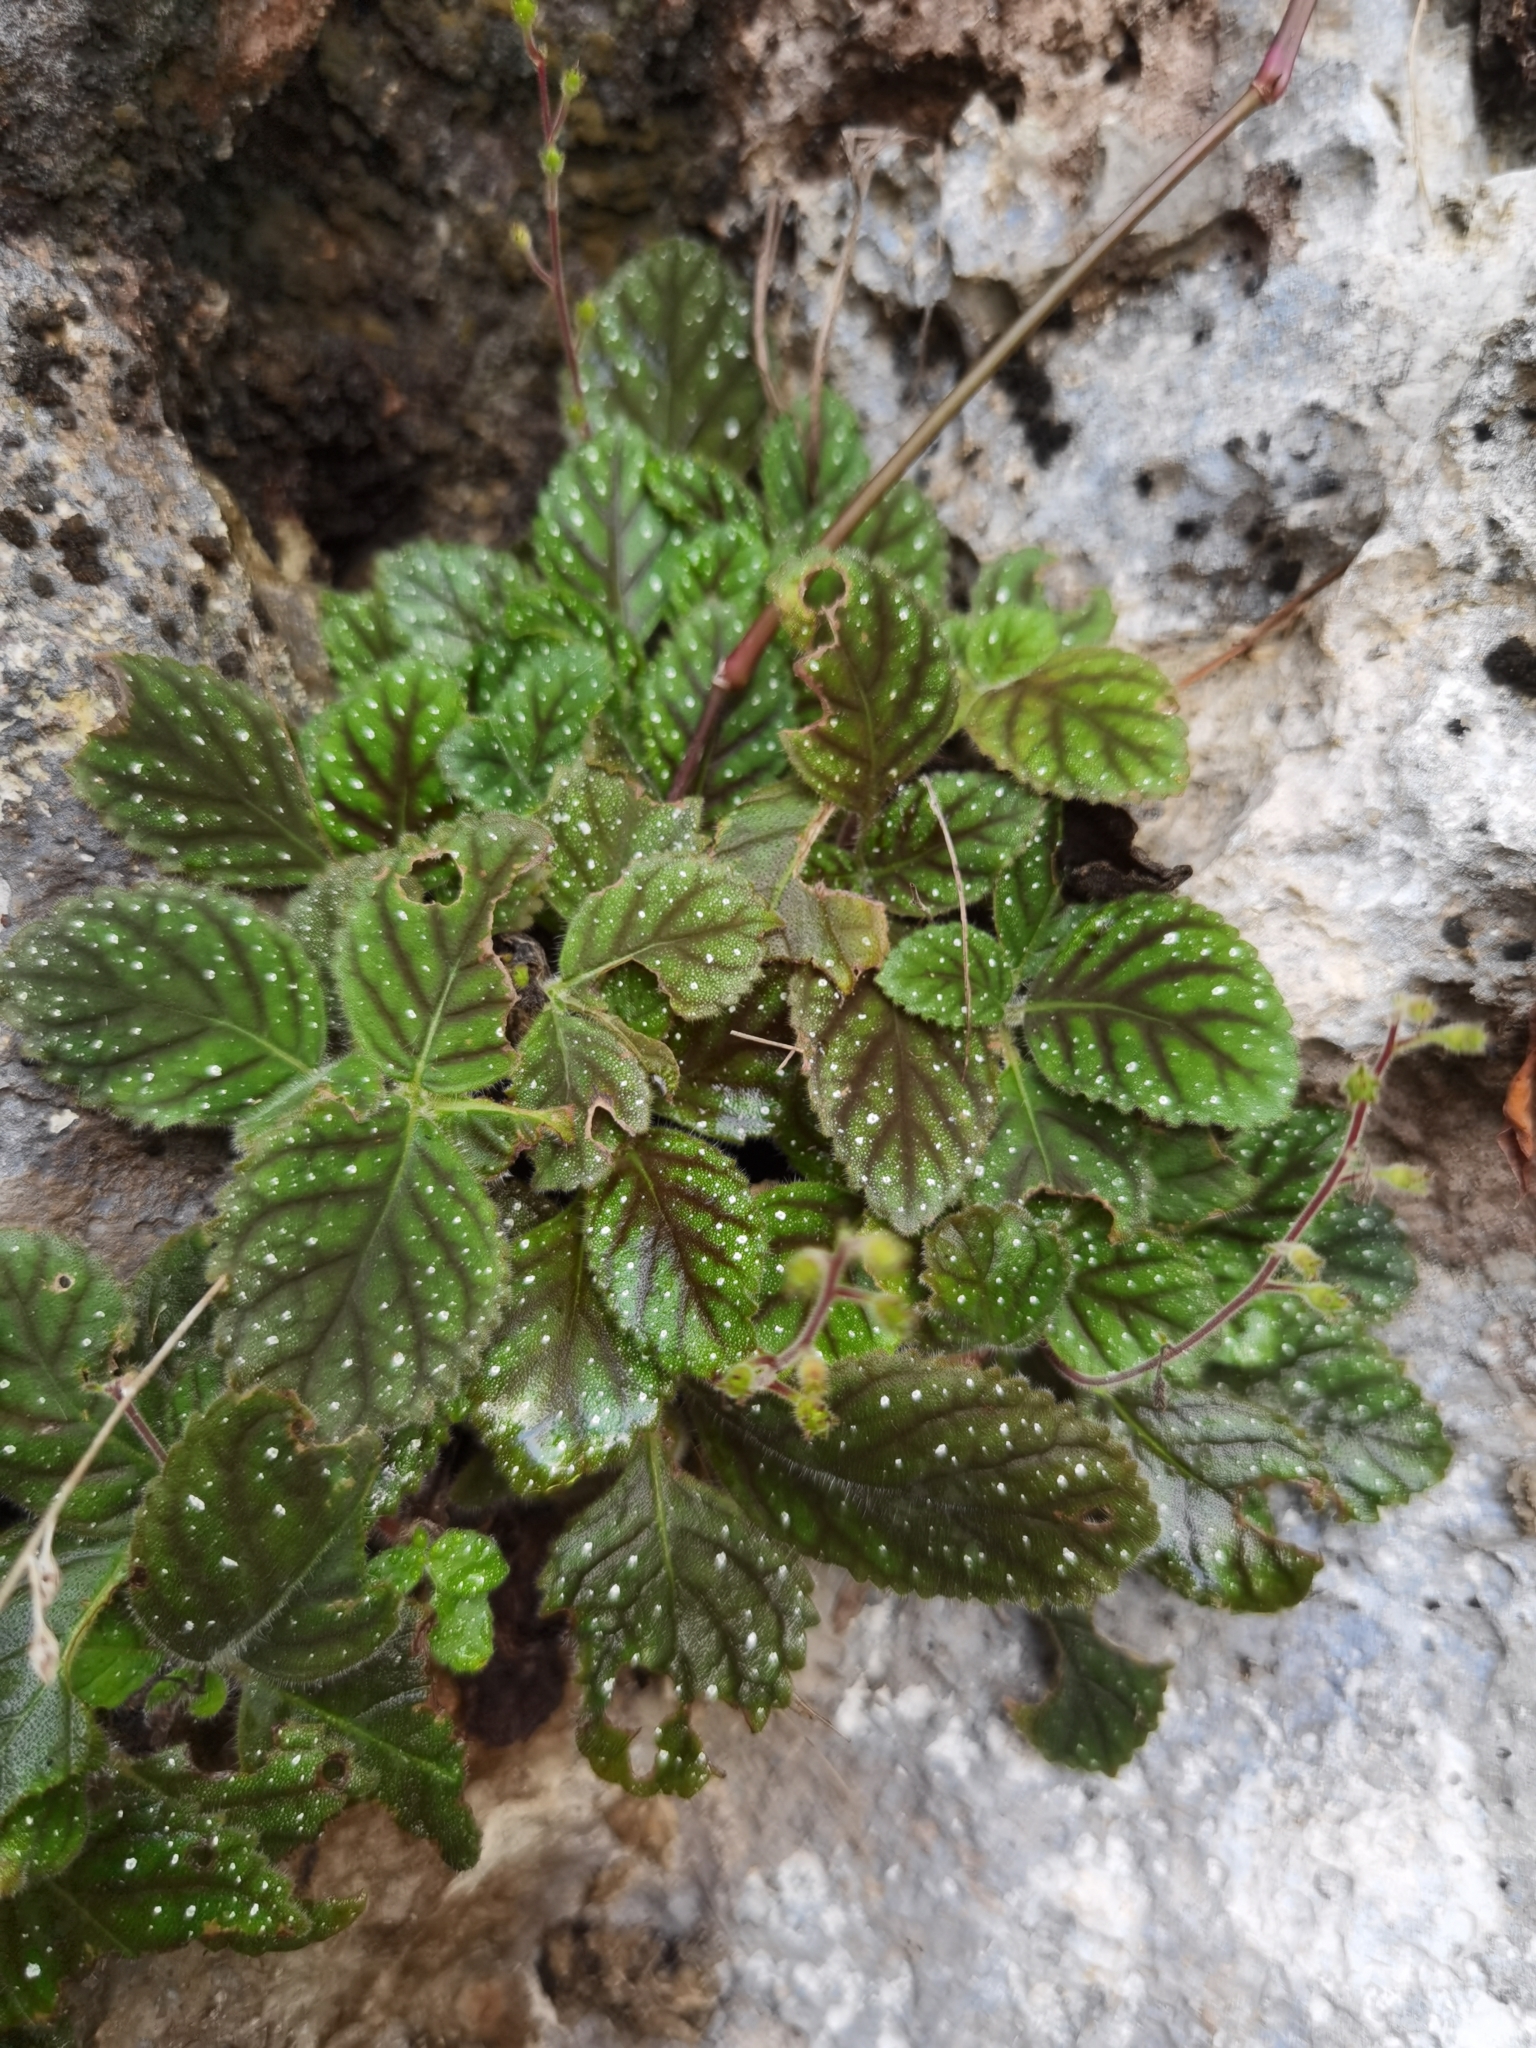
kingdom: Plantae
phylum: Tracheophyta
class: Magnoliopsida
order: Lamiales
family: Gesneriaceae
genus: Gloxinia
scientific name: Gloxinia erinoides
